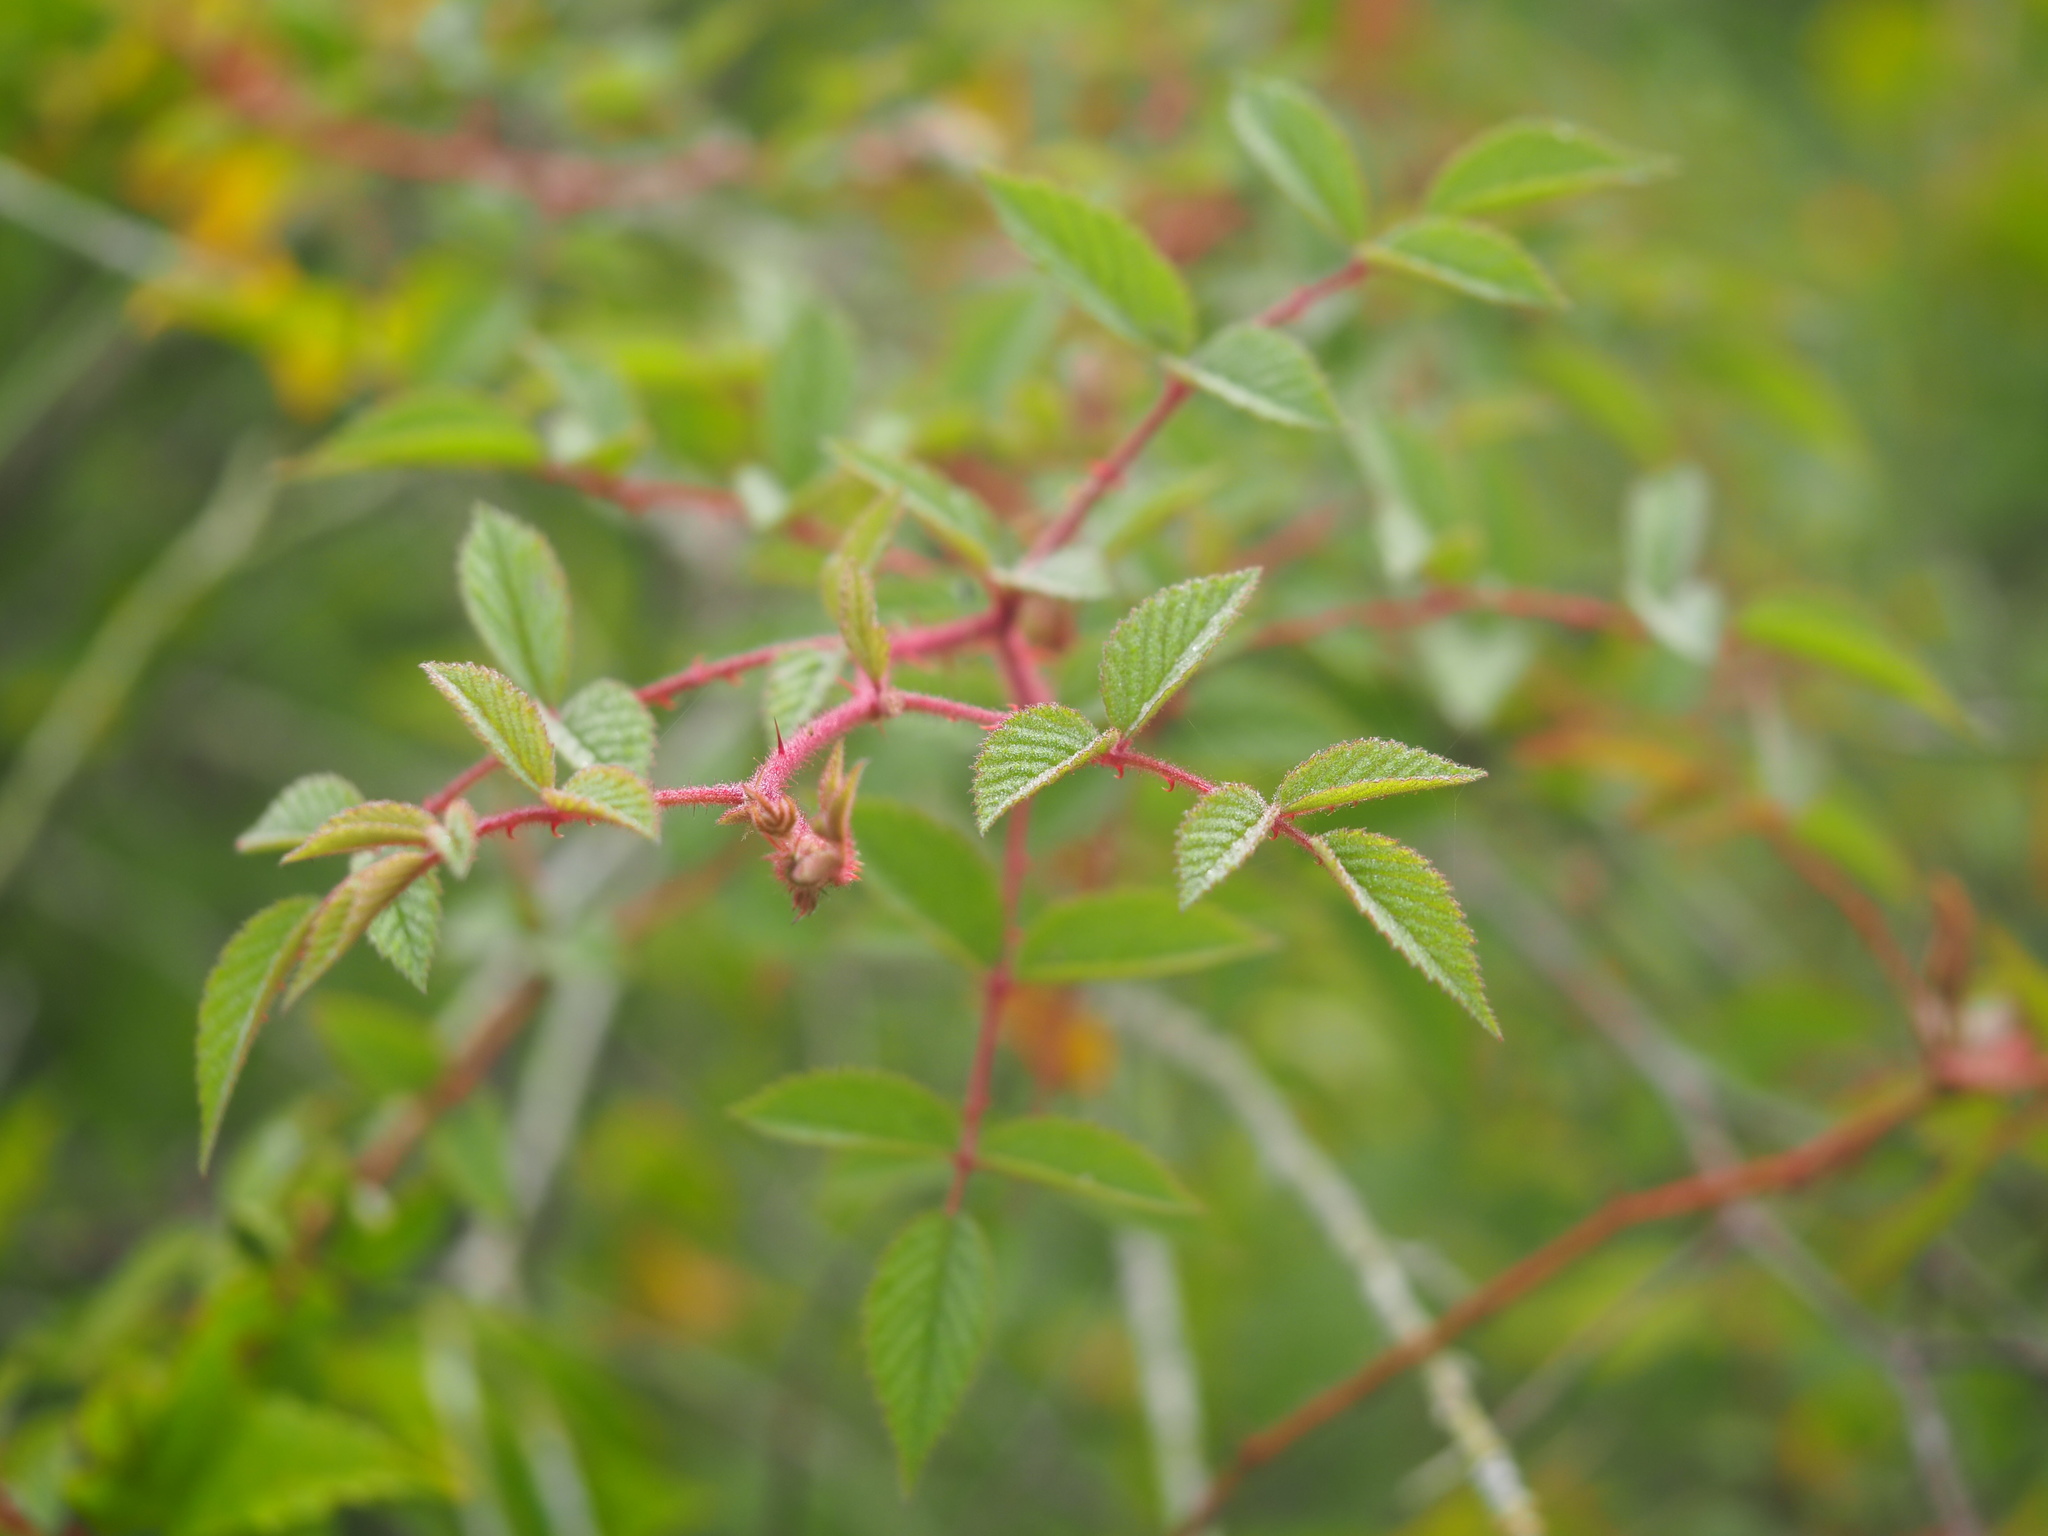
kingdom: Plantae
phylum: Tracheophyta
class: Magnoliopsida
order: Rosales
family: Rosaceae
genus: Rubus
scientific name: Rubus croceacanthus
